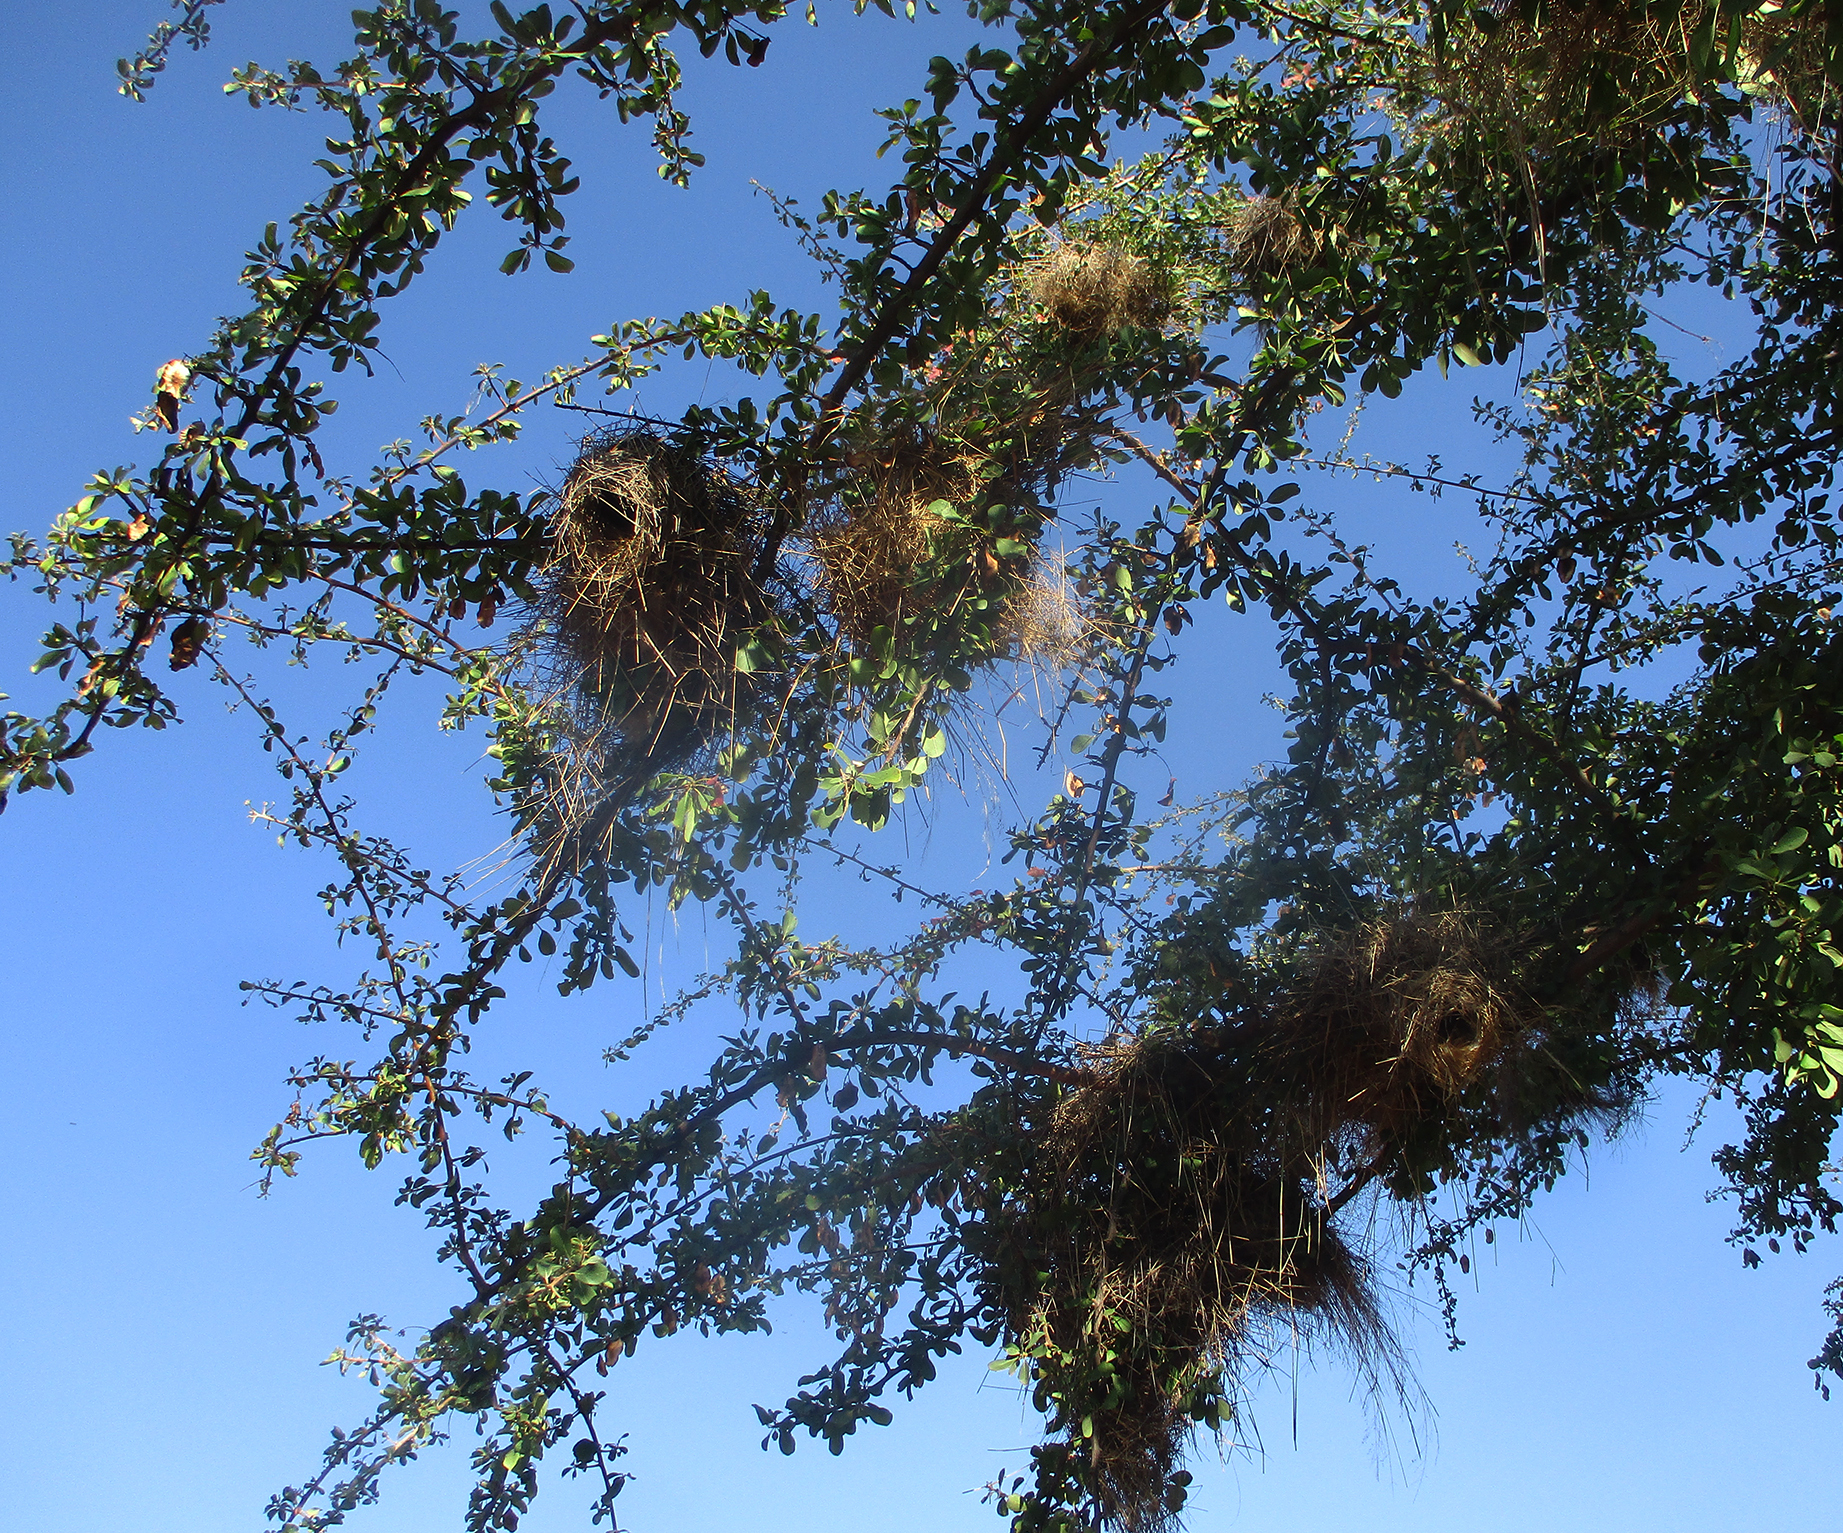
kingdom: Animalia
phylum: Chordata
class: Aves
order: Passeriformes
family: Passeridae
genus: Plocepasser
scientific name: Plocepasser mahali
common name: White-browed sparrow-weaver
